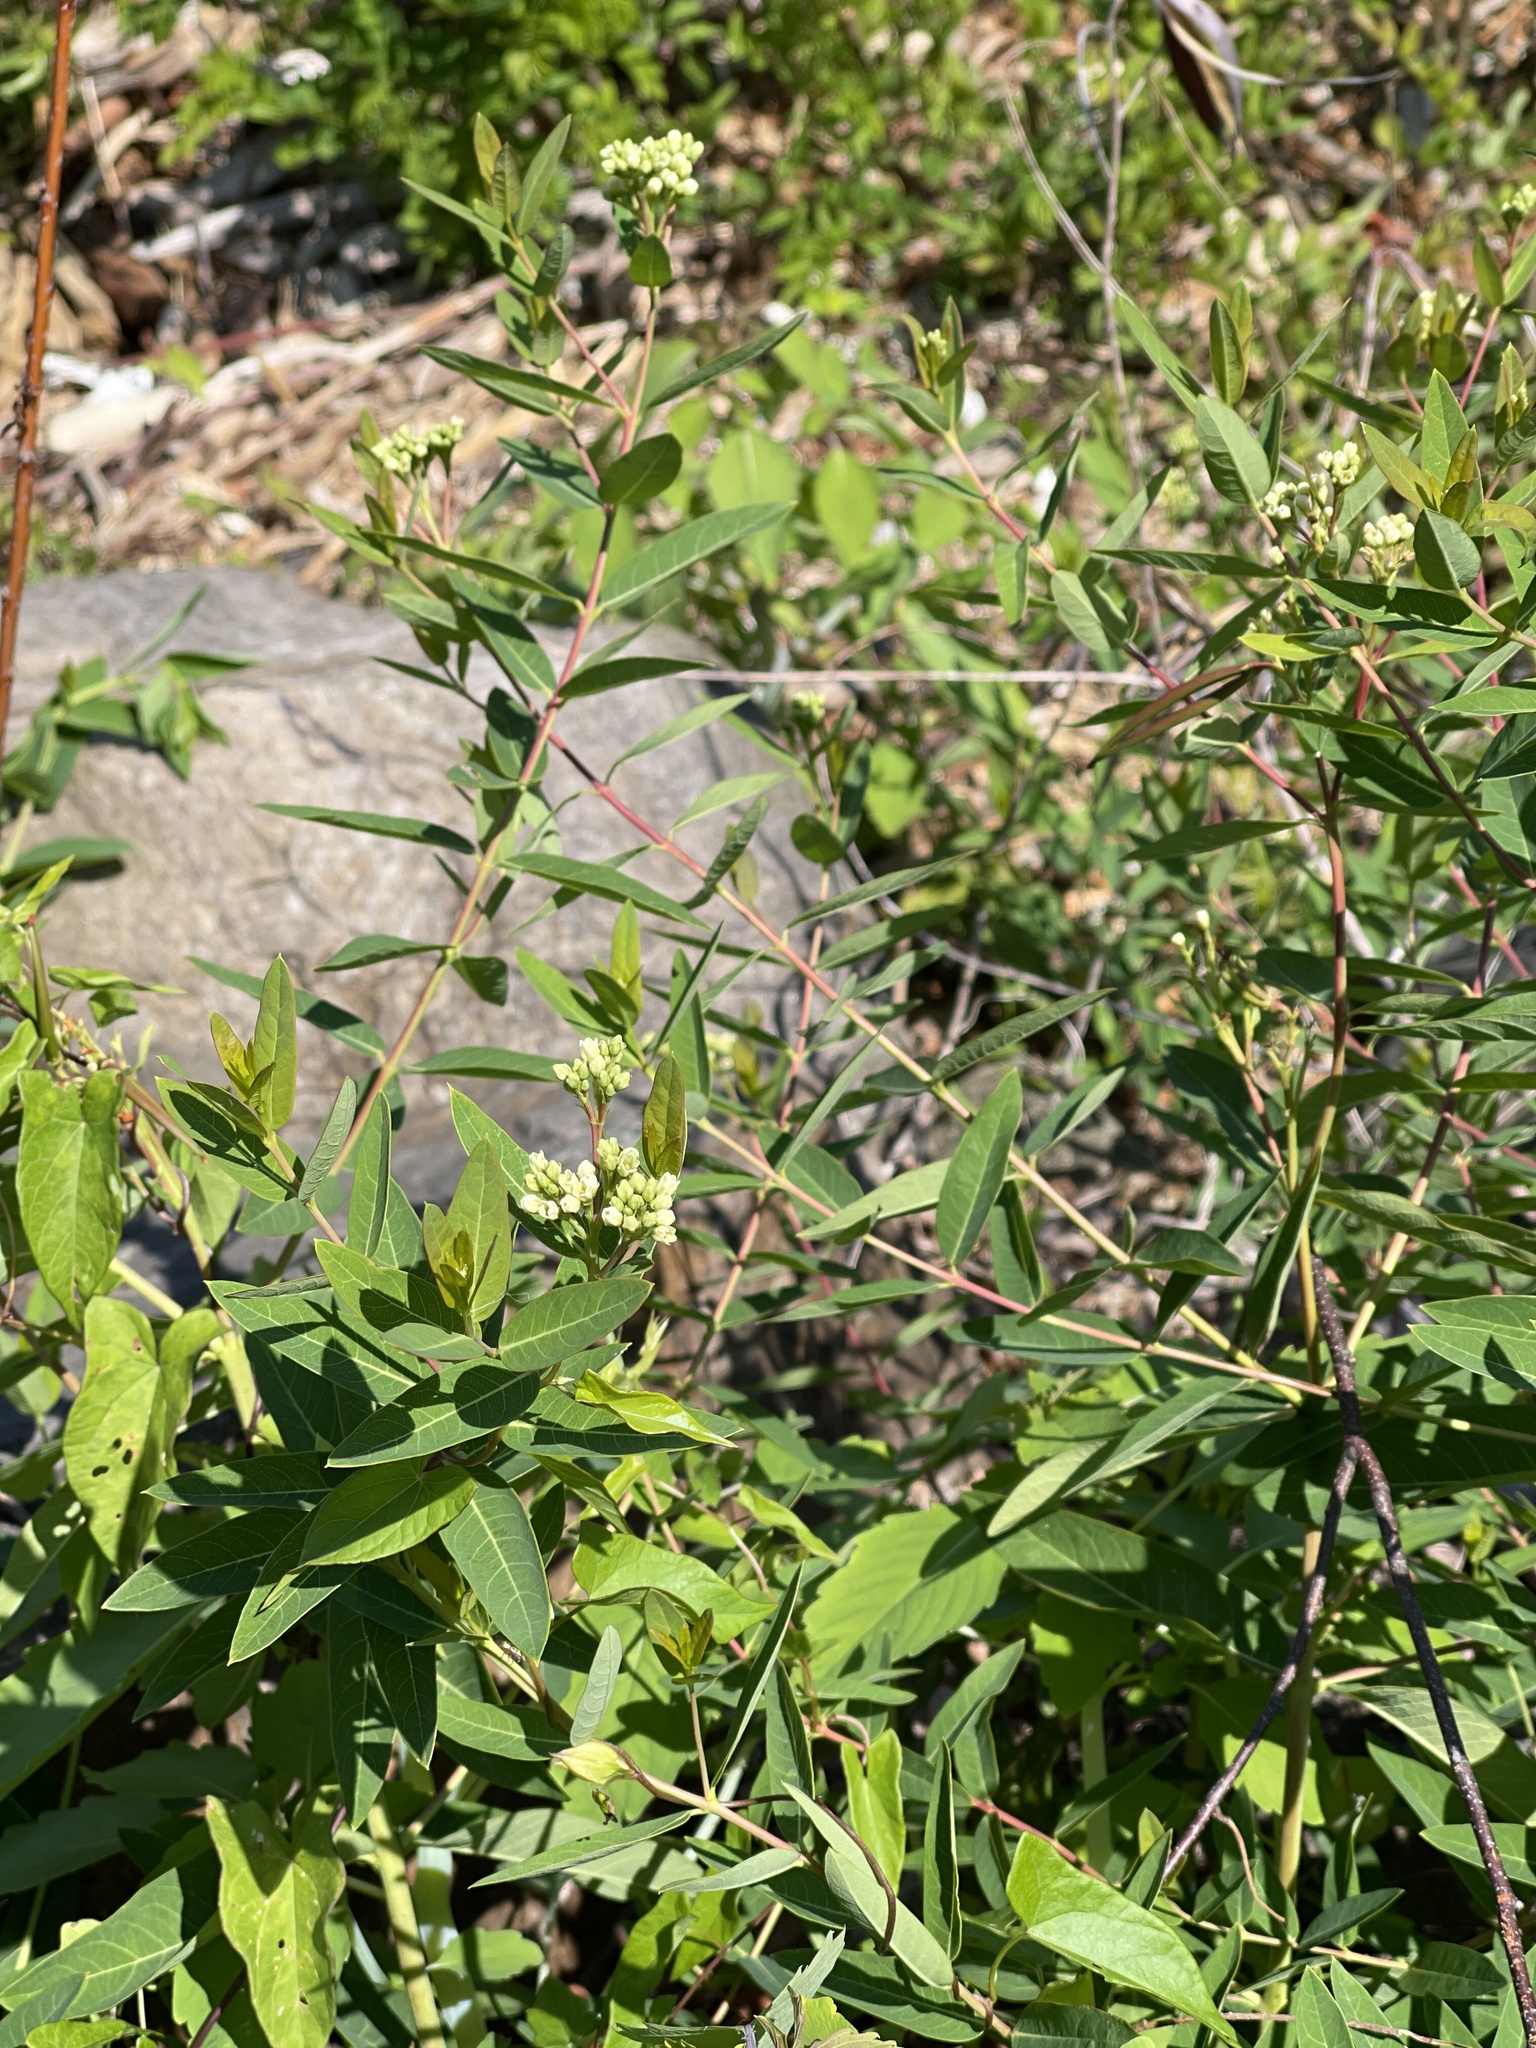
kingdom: Plantae
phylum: Tracheophyta
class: Magnoliopsida
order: Gentianales
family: Apocynaceae
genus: Apocynum
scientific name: Apocynum cannabinum
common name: Hemp dogbane
